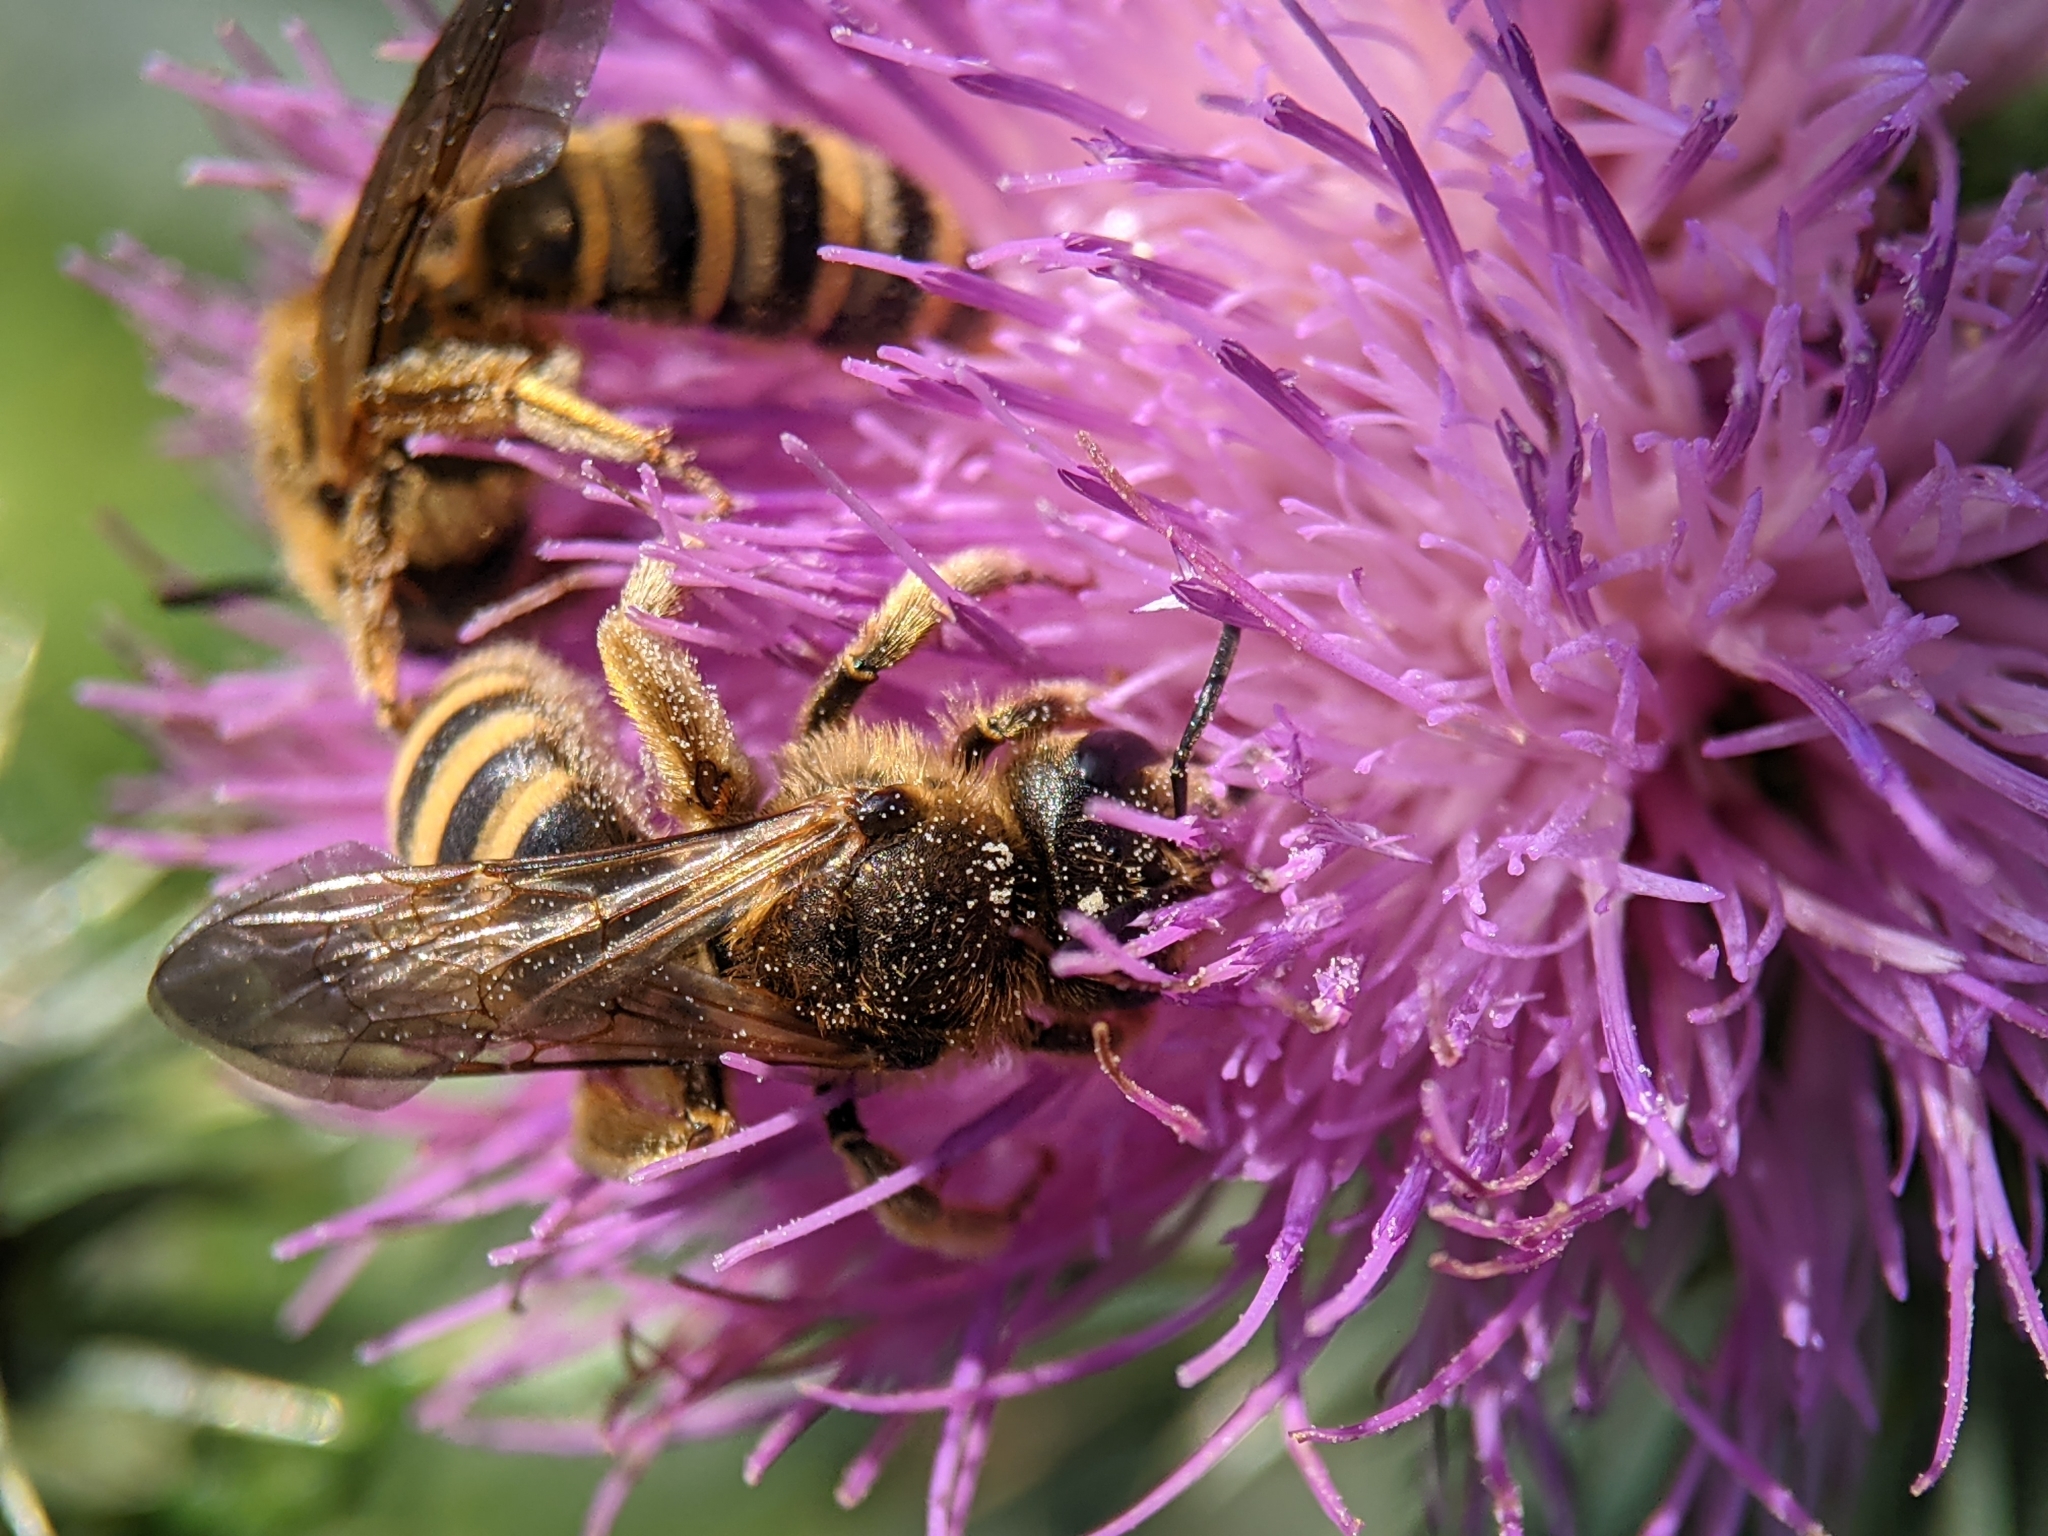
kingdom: Animalia
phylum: Arthropoda
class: Insecta
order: Hymenoptera
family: Halictidae
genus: Halictus
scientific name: Halictus scabiosae
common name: Great banded furrow bee
